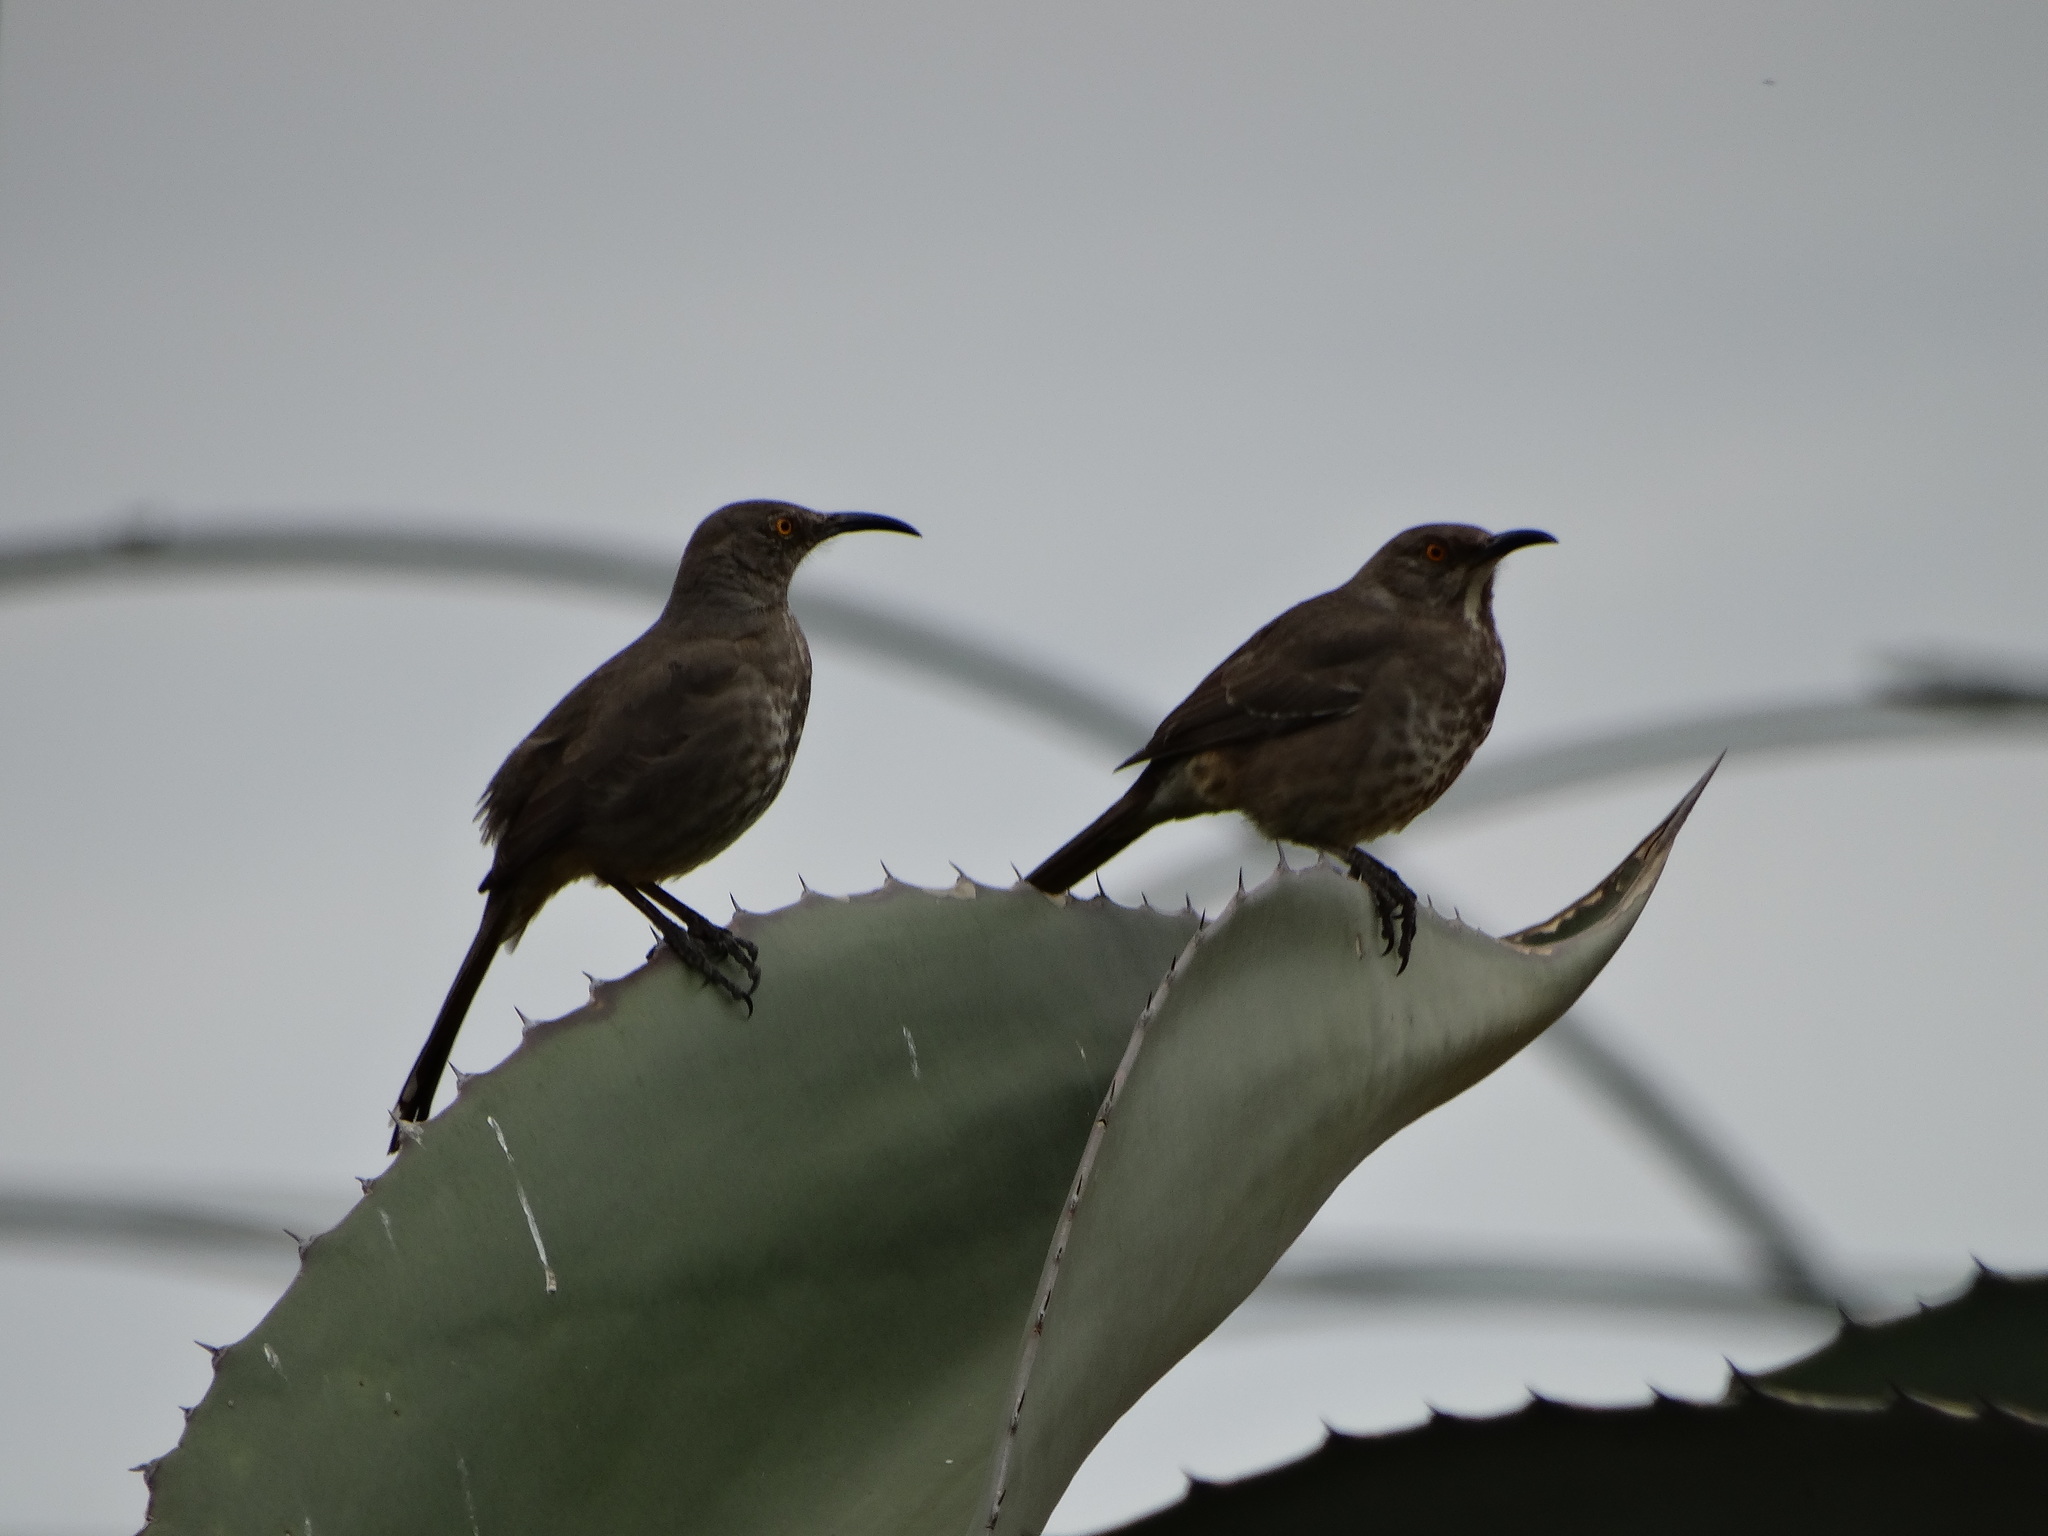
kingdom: Animalia
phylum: Chordata
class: Aves
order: Passeriformes
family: Mimidae
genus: Toxostoma
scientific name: Toxostoma curvirostre
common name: Curve-billed thrasher
